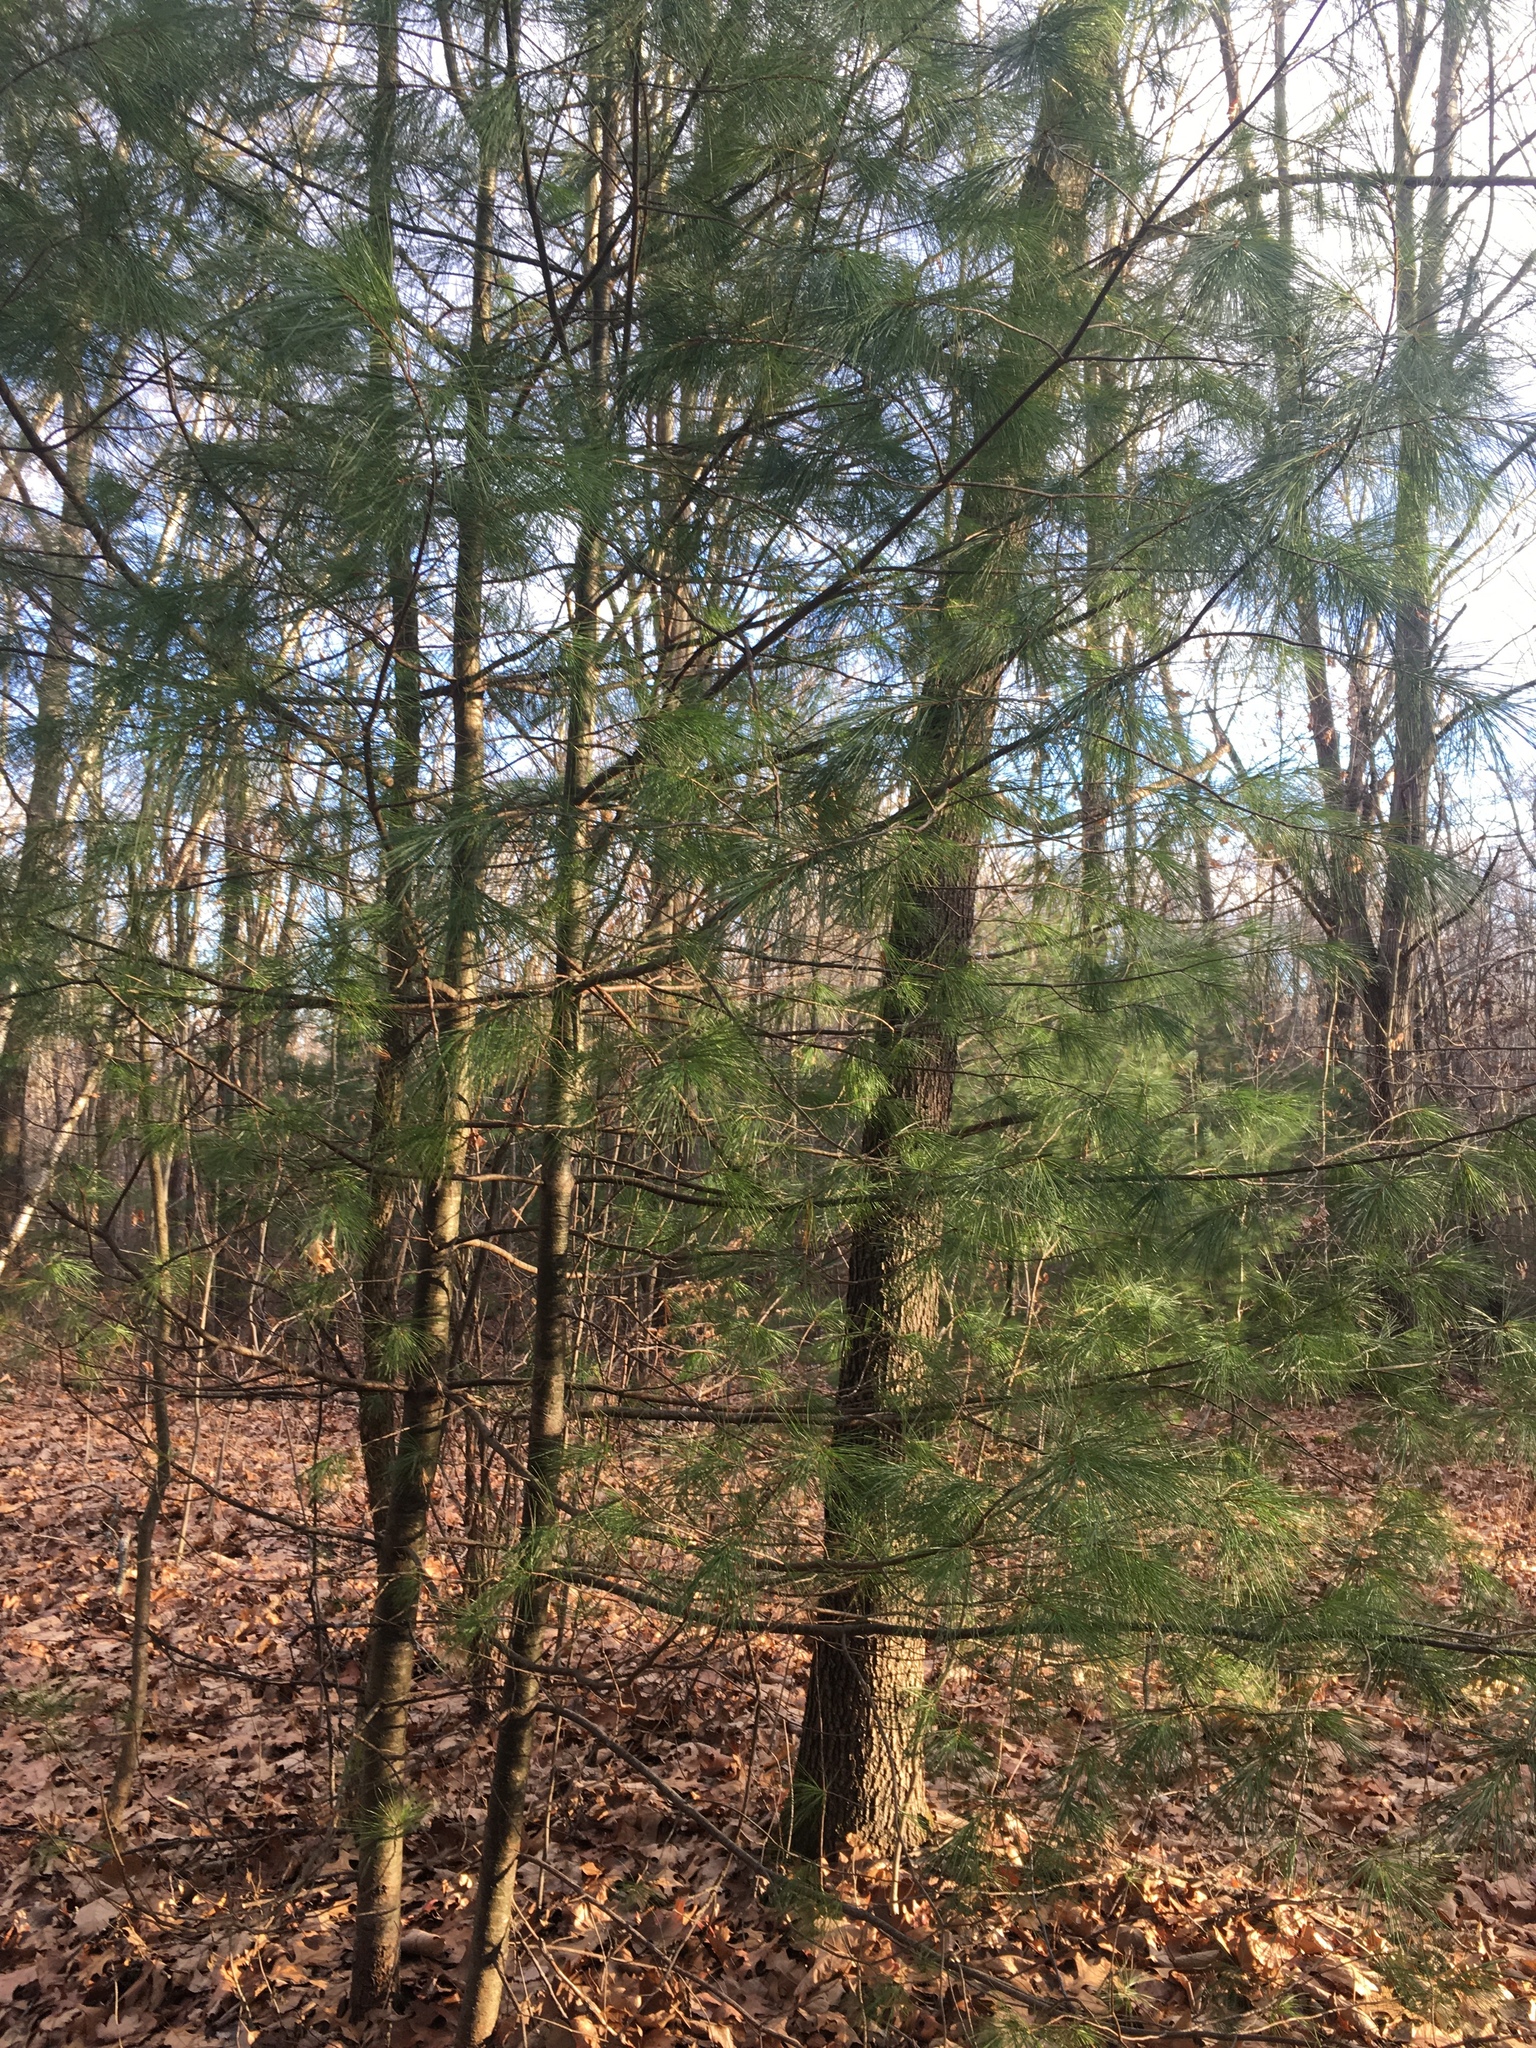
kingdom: Plantae
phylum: Tracheophyta
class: Pinopsida
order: Pinales
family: Pinaceae
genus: Pinus
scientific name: Pinus strobus
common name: Weymouth pine
